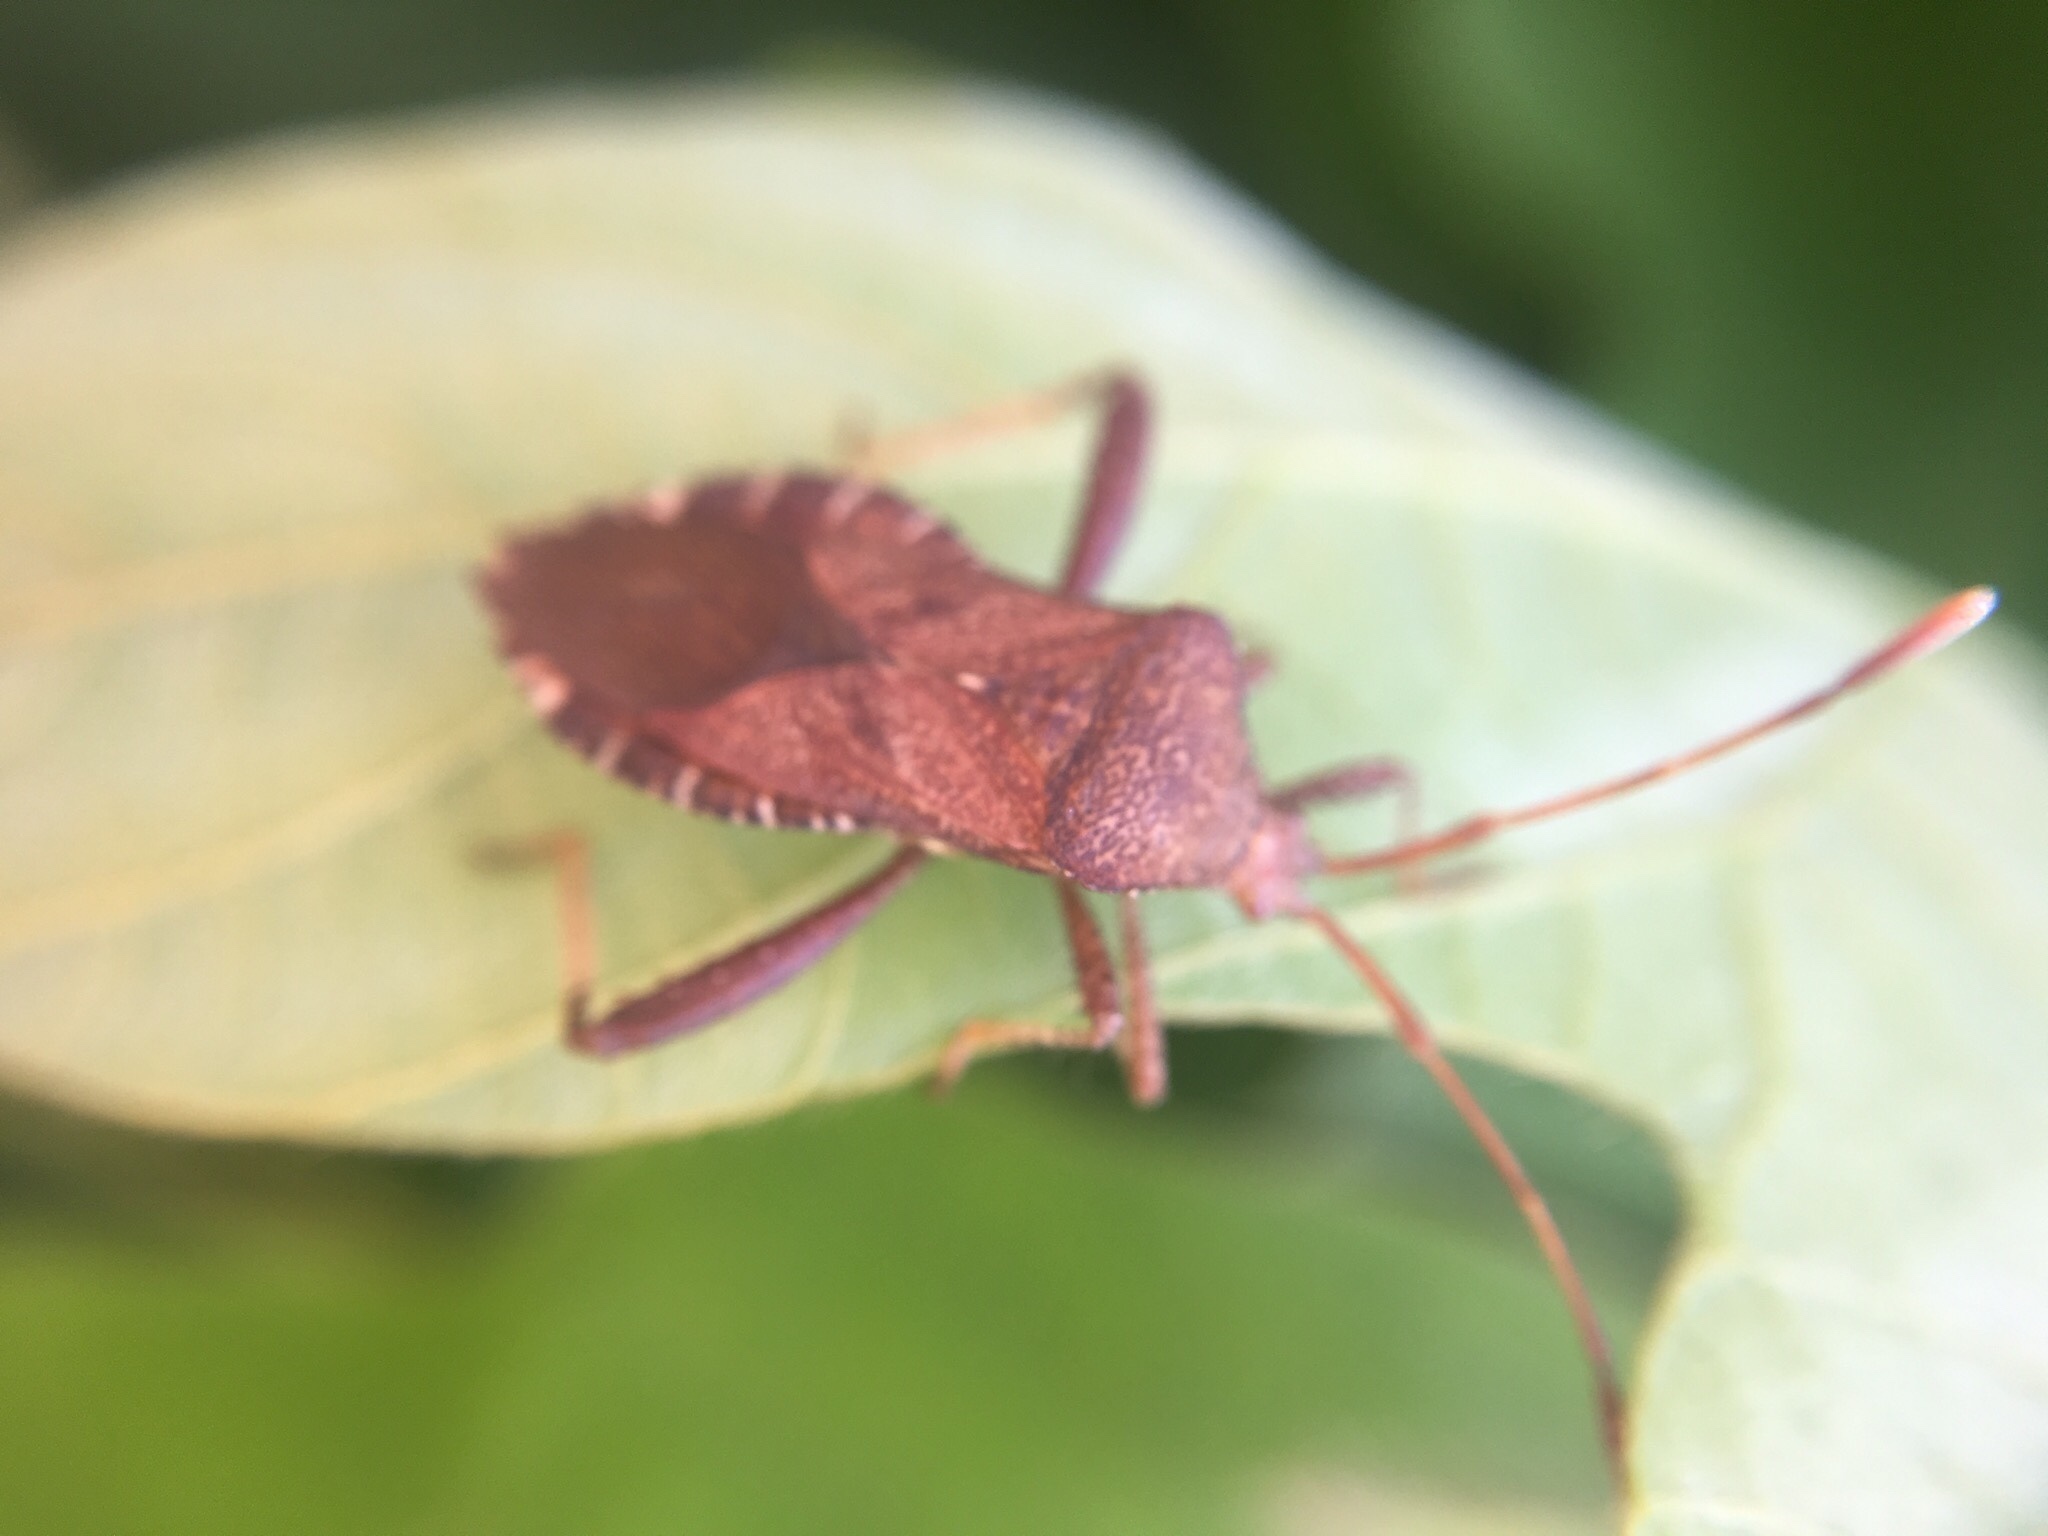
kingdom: Animalia
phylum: Arthropoda
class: Insecta
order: Hemiptera
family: Coreidae
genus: Euthochtha
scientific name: Euthochtha galeator
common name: Helmeted squash bug
